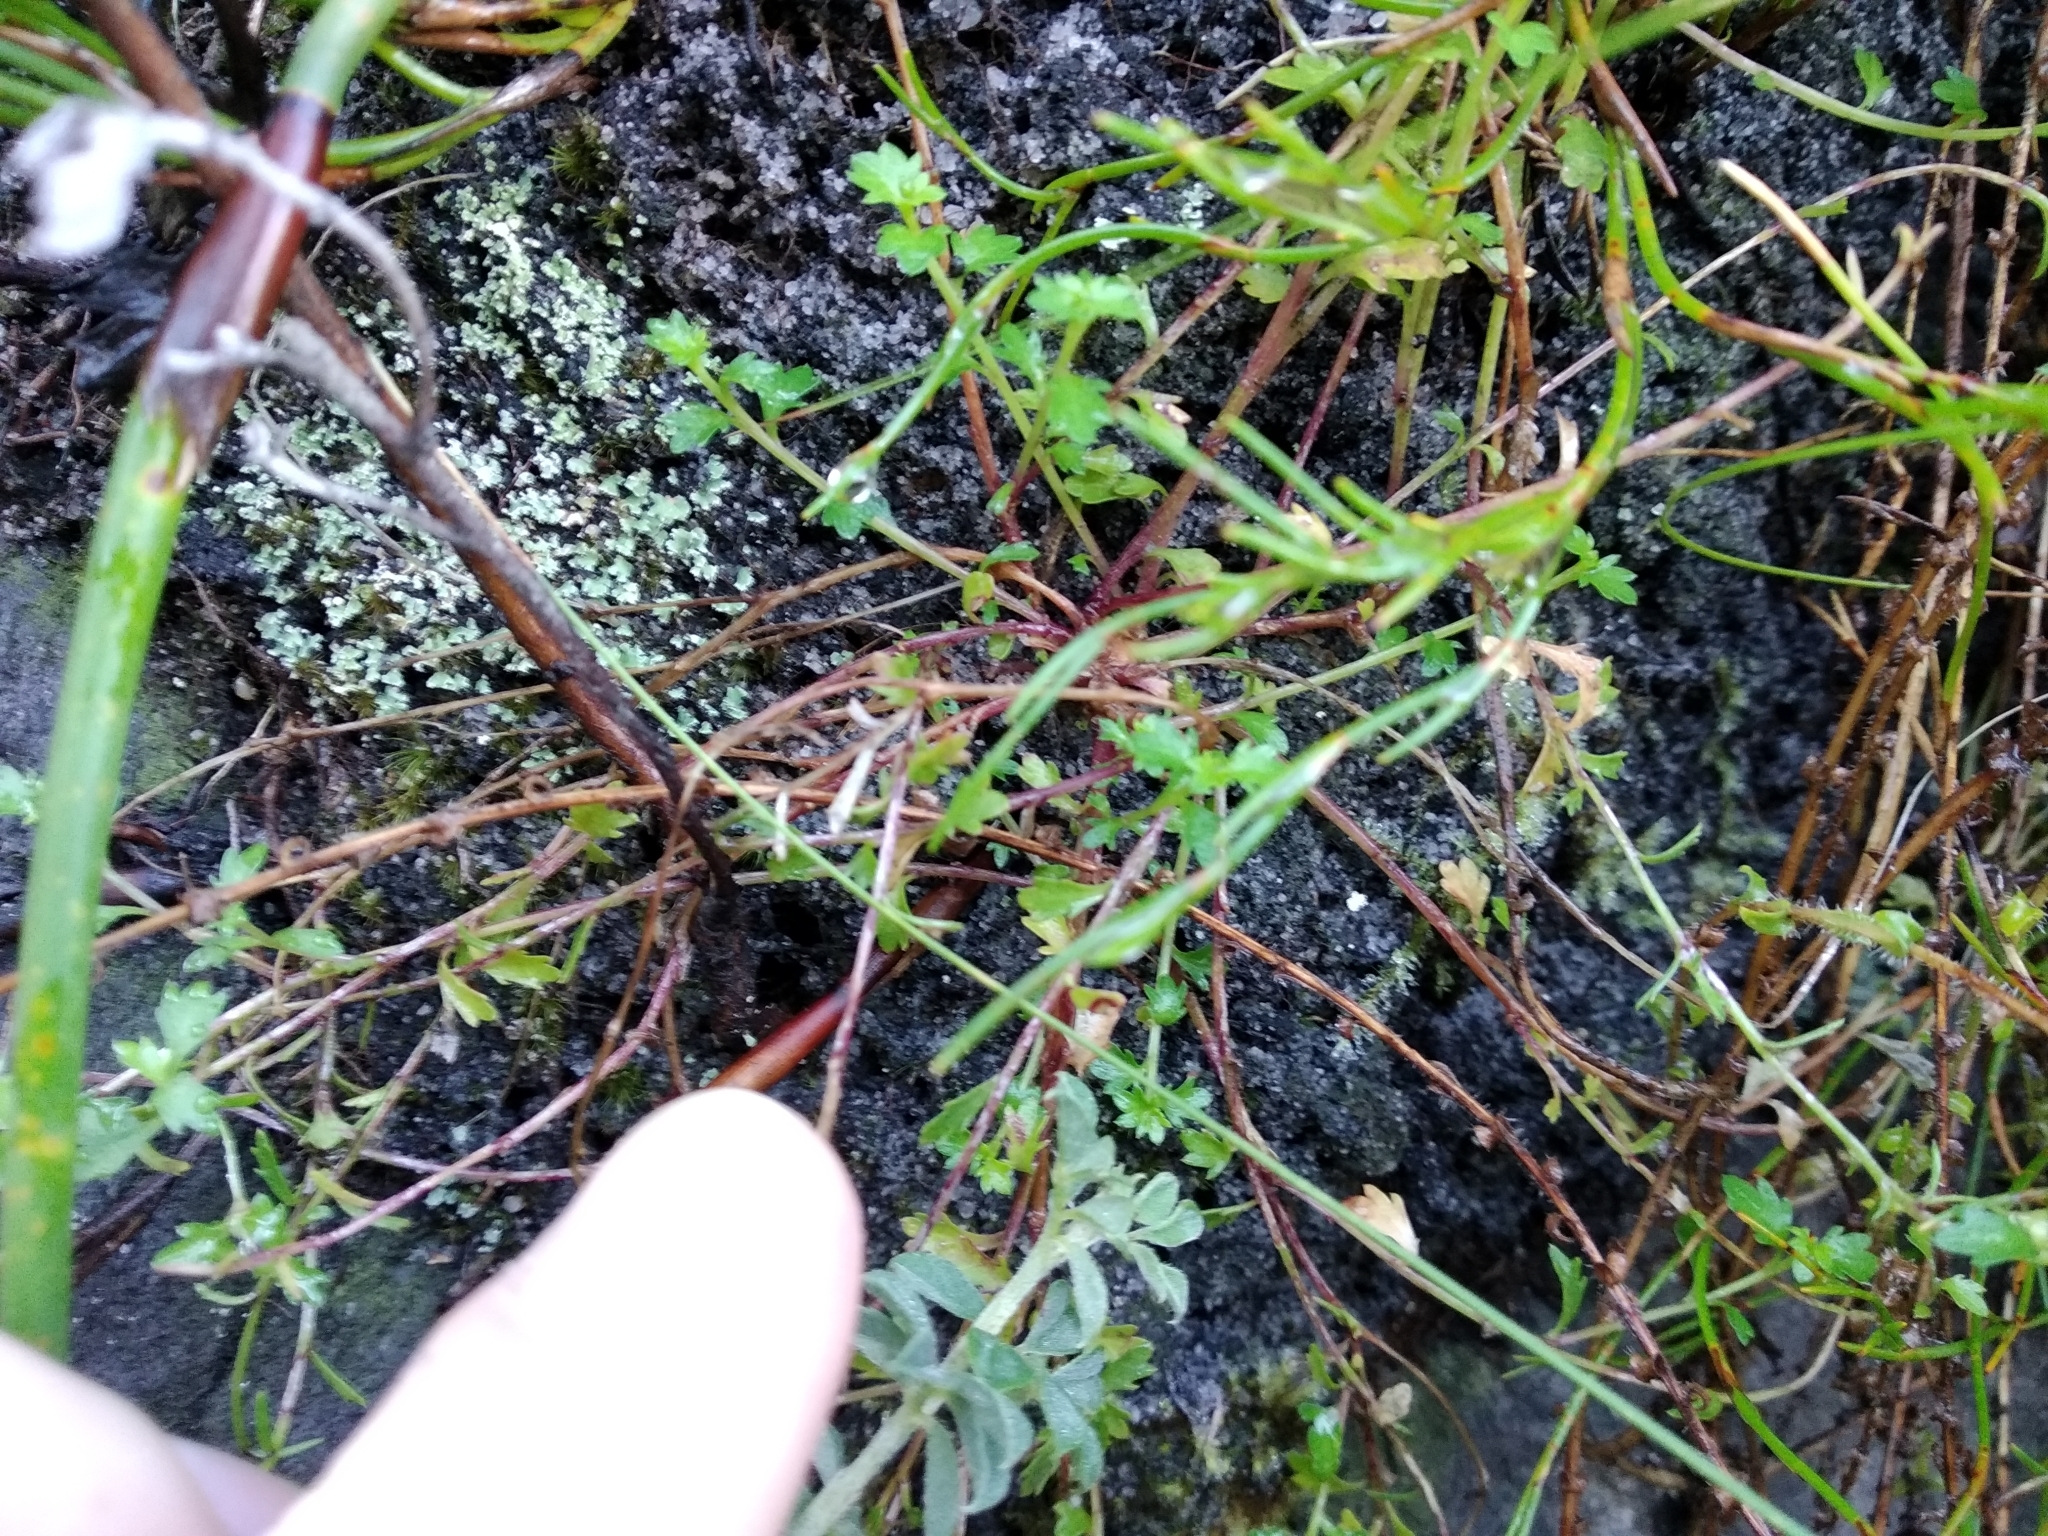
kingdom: Plantae
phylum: Tracheophyta
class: Magnoliopsida
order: Asterales
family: Campanulaceae
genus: Lobelia
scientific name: Lobelia eckloniana
